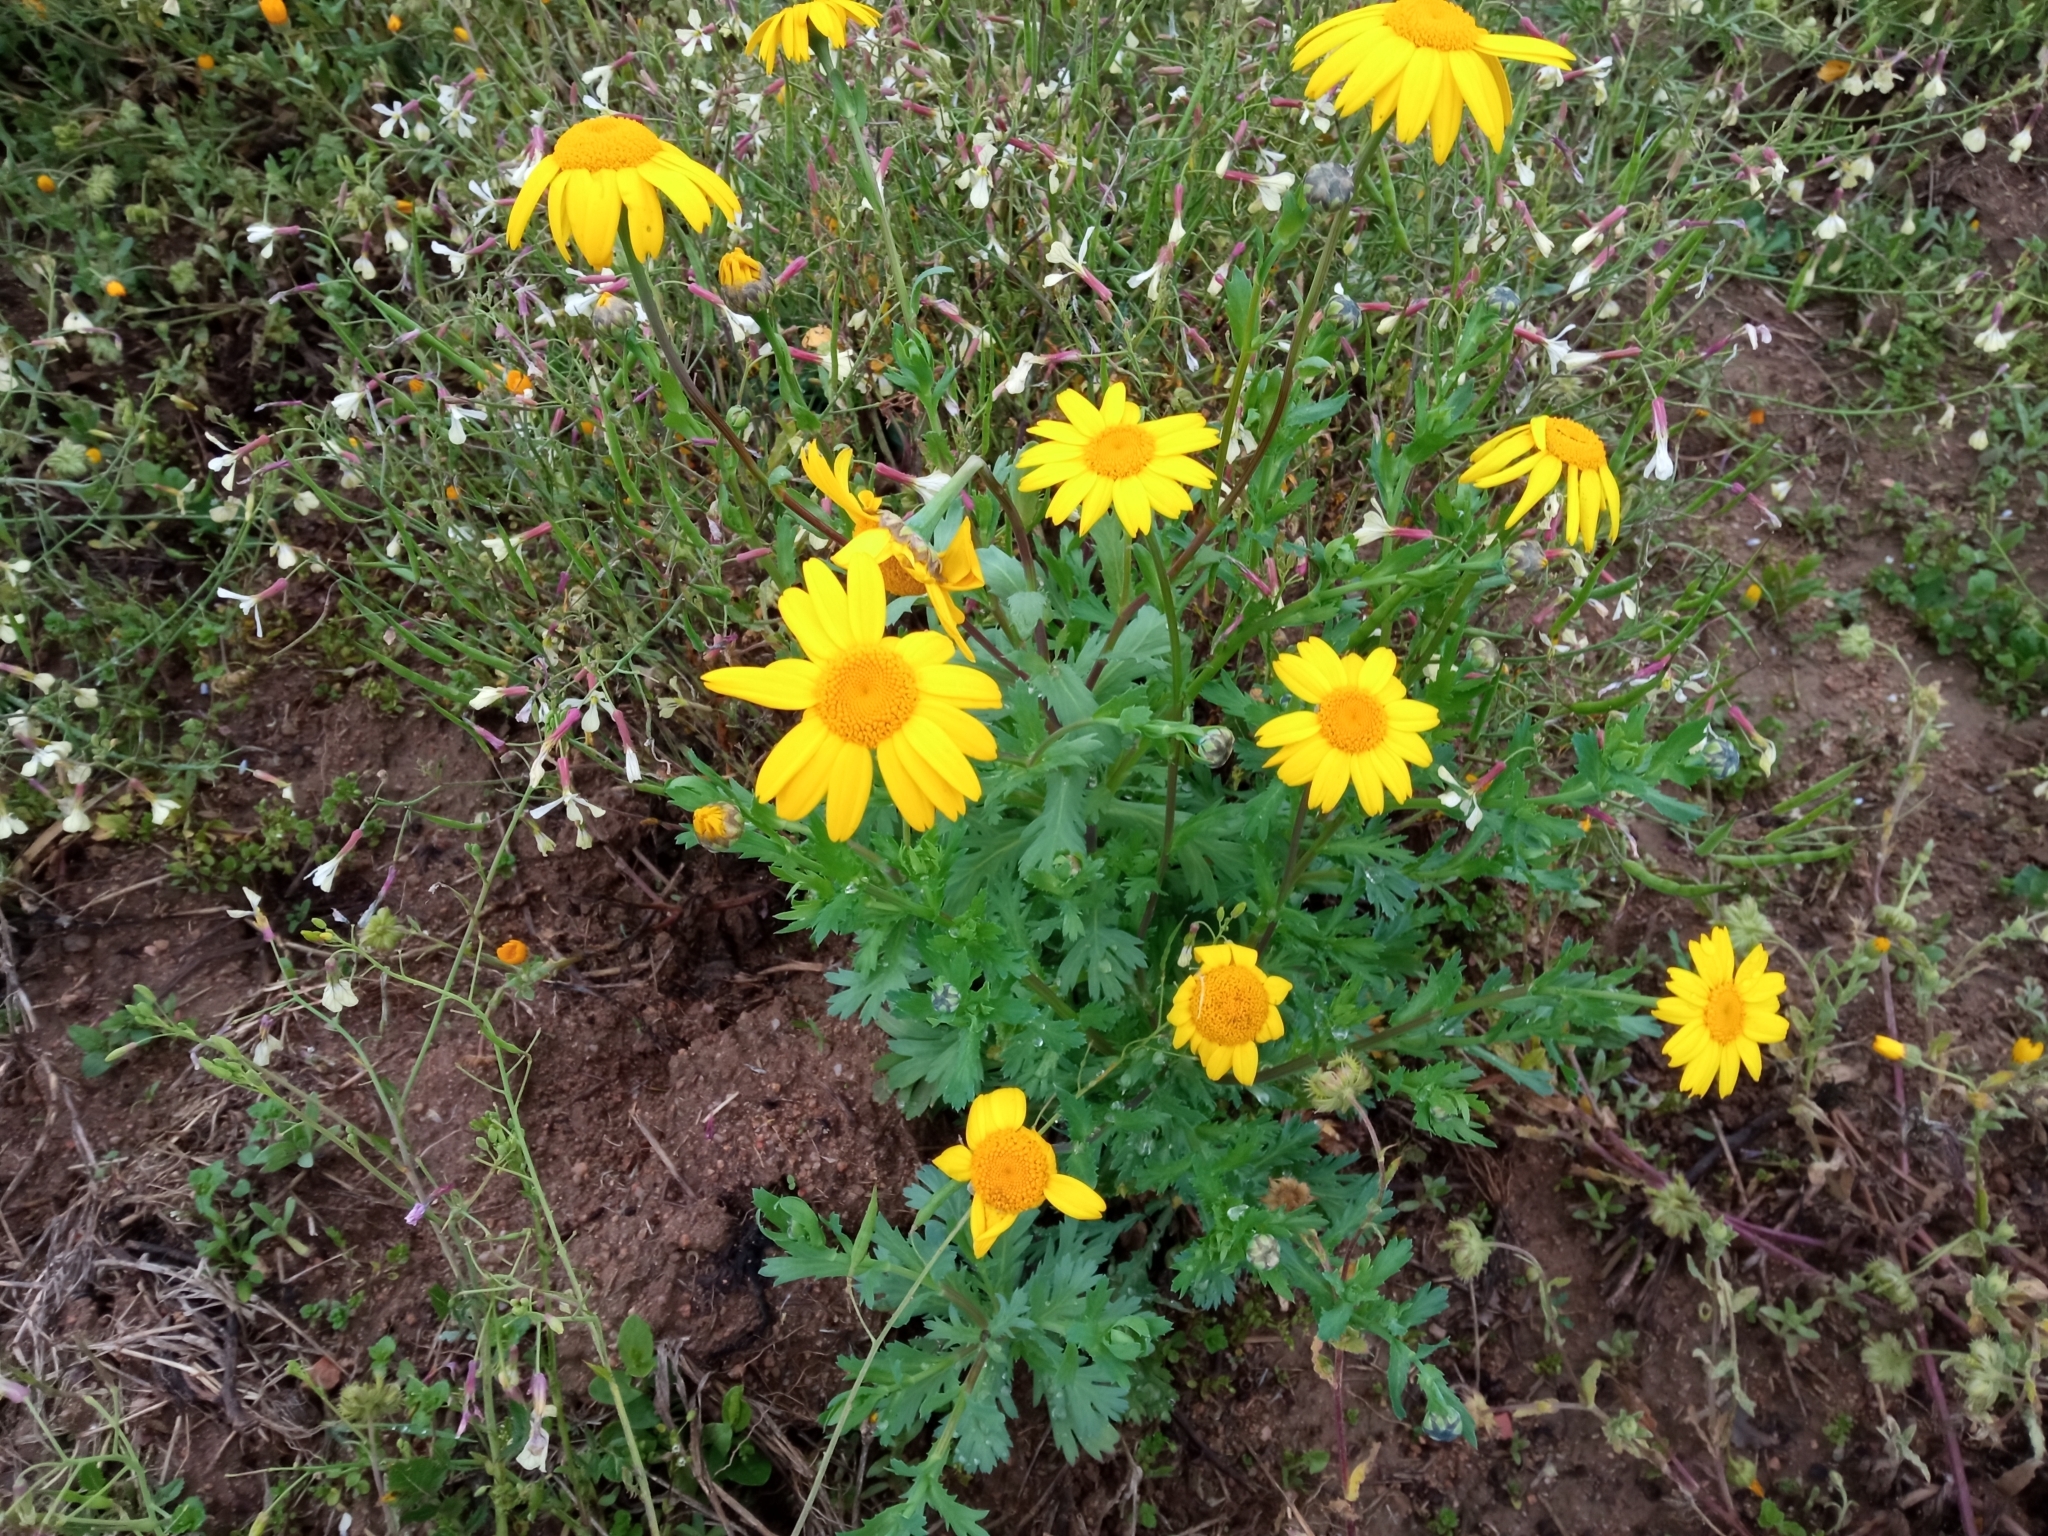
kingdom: Plantae
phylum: Tracheophyta
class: Magnoliopsida
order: Asterales
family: Asteraceae
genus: Glebionis
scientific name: Glebionis segetum
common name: Corndaisy
